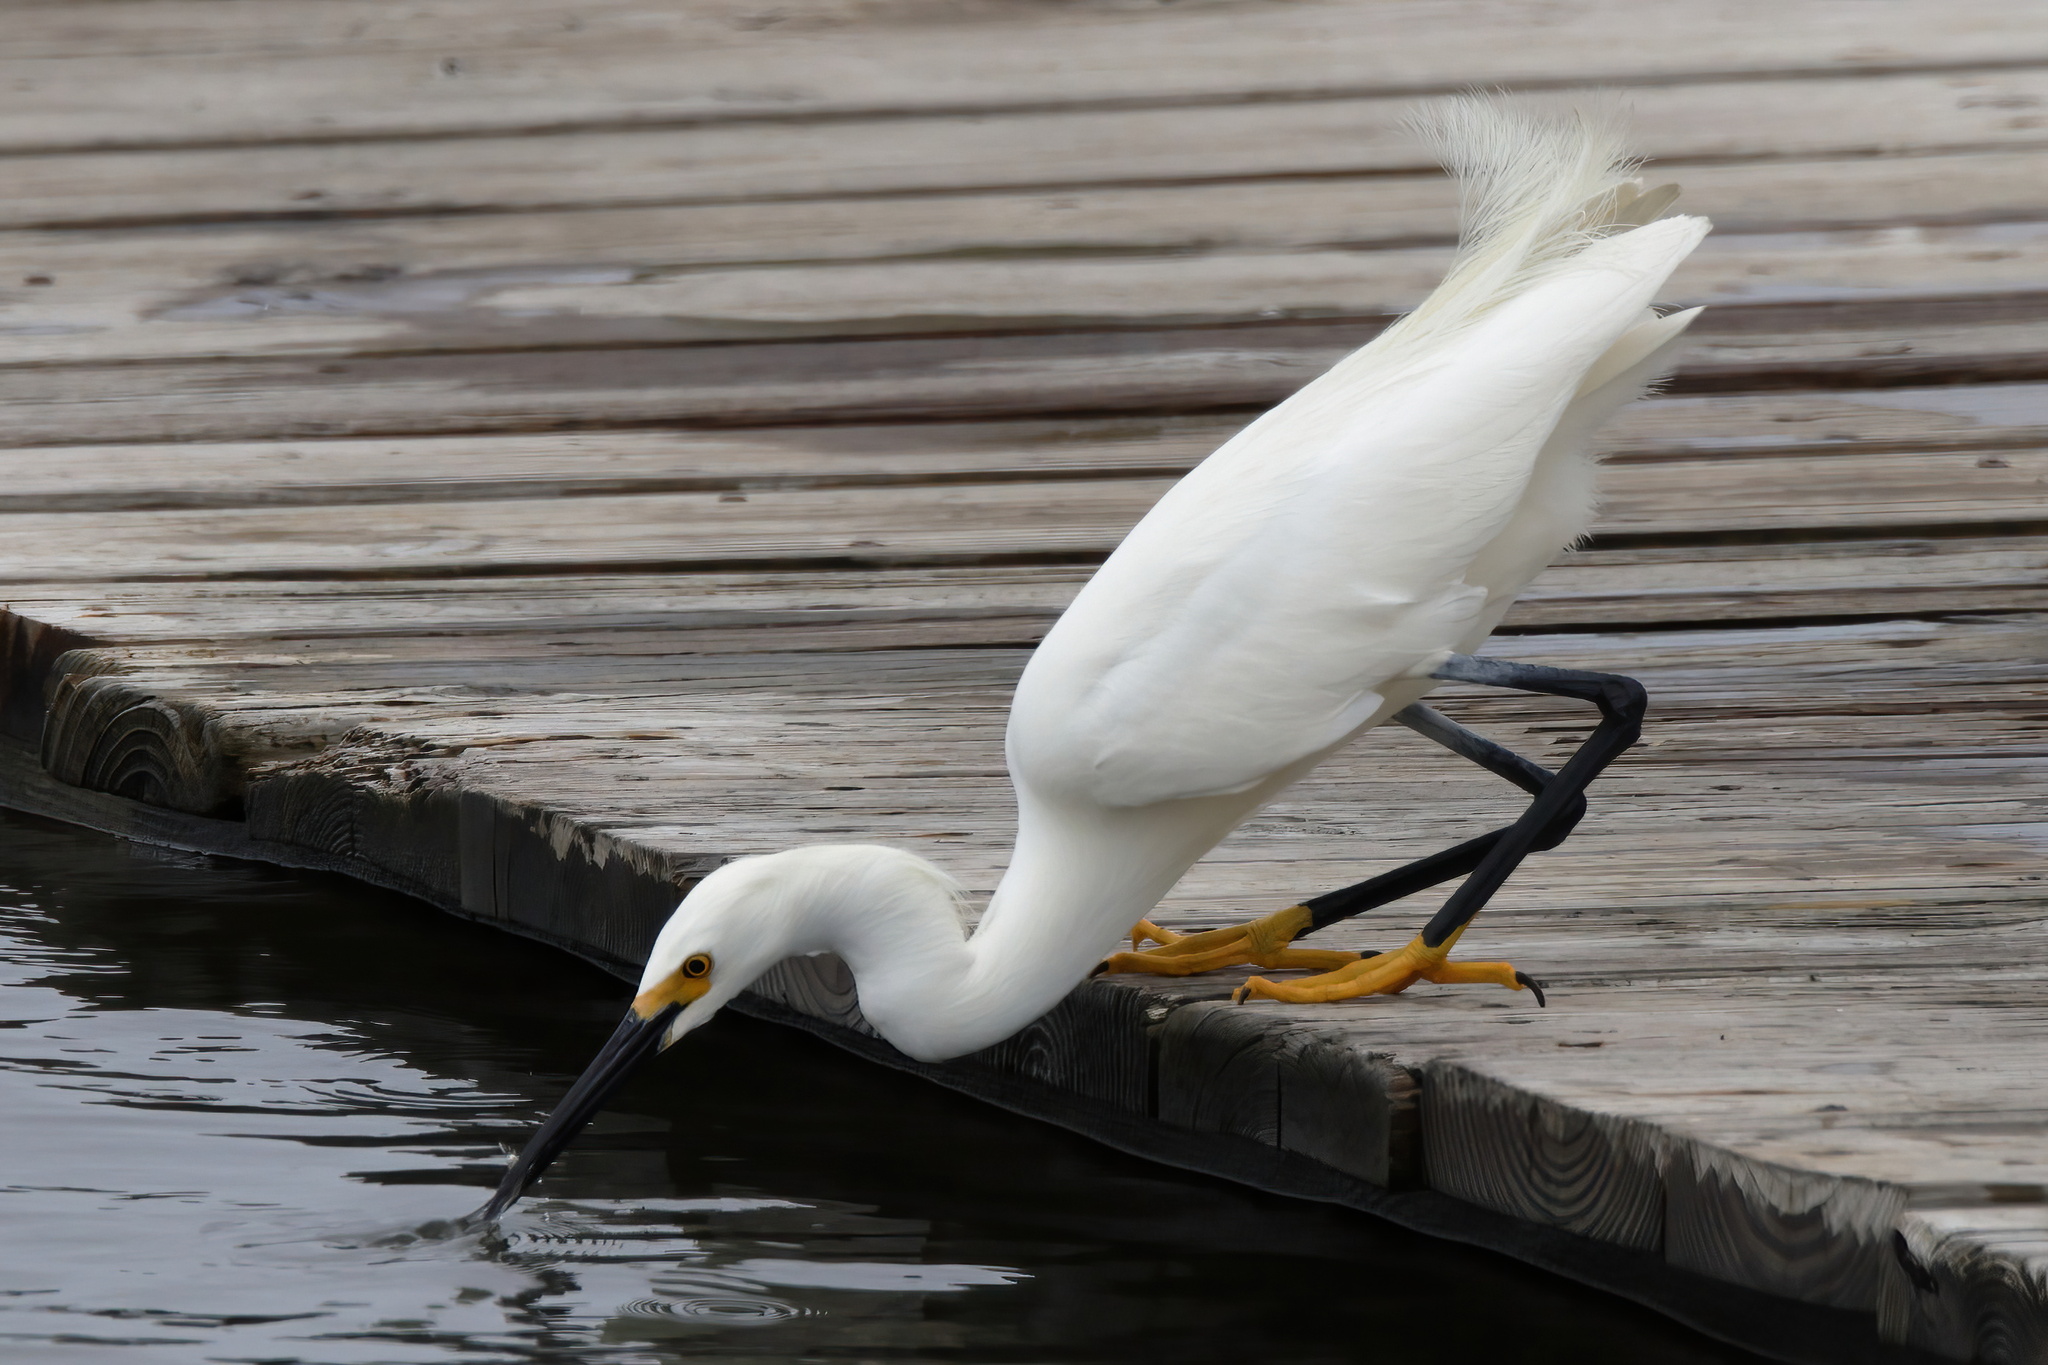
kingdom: Animalia
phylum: Chordata
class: Aves
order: Pelecaniformes
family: Ardeidae
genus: Egretta
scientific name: Egretta thula
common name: Snowy egret
